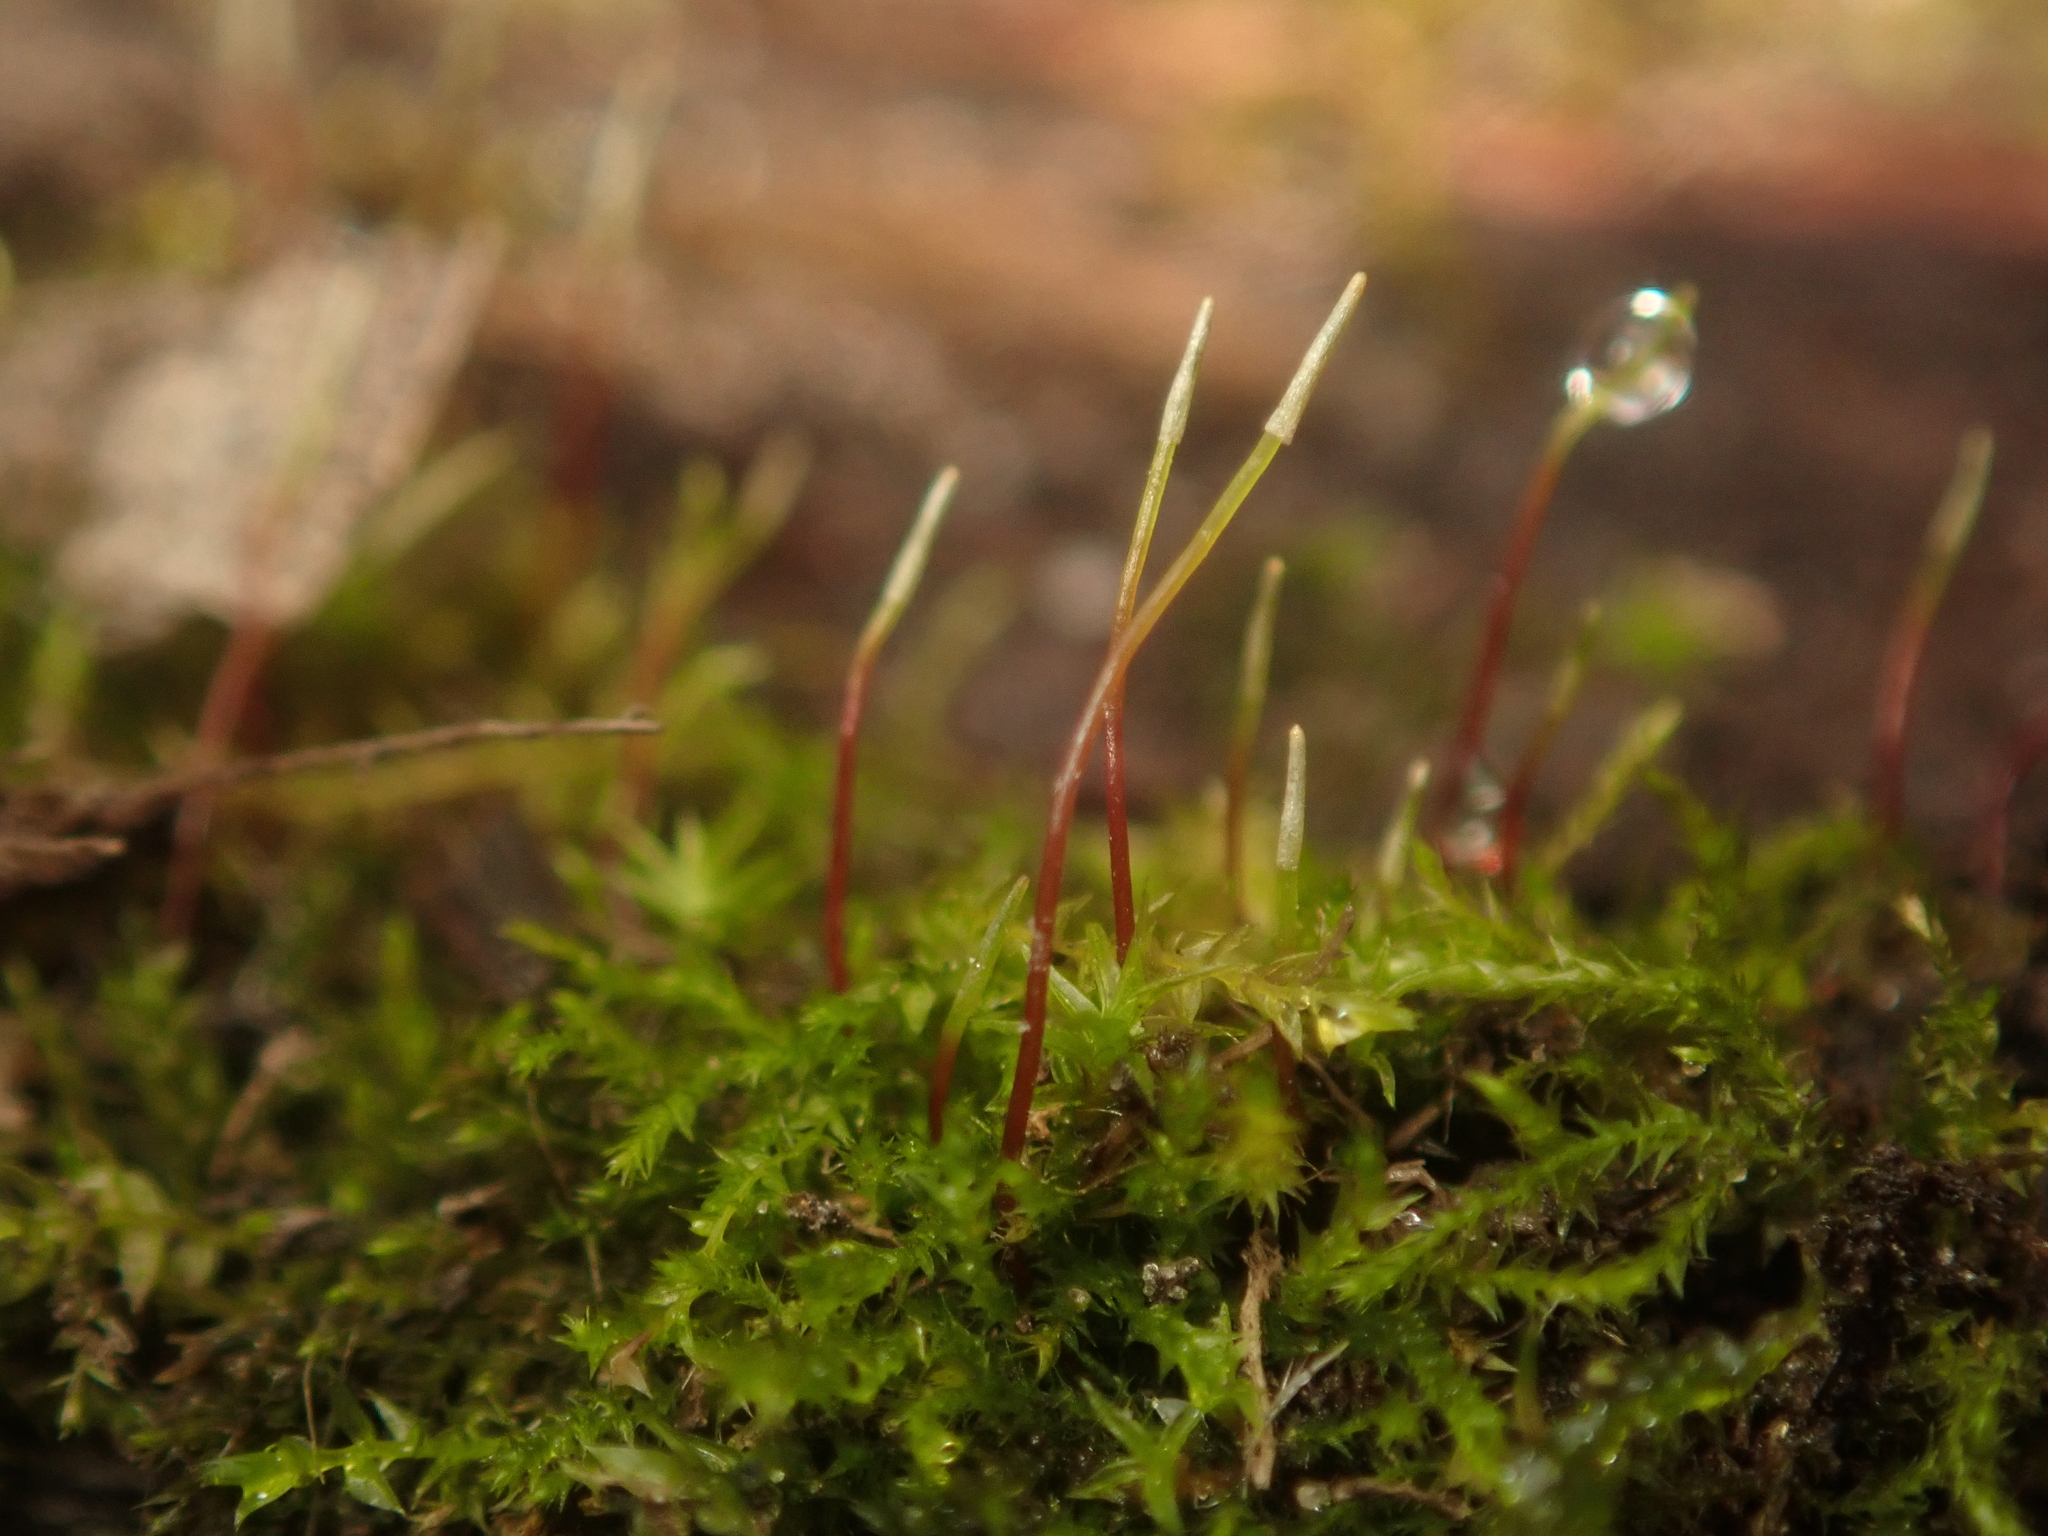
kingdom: Plantae
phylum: Bryophyta
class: Bryopsida
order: Hypnales
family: Amblystegiaceae
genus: Amblystegium
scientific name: Amblystegium serpens
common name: Jurkatzka's feather moss
